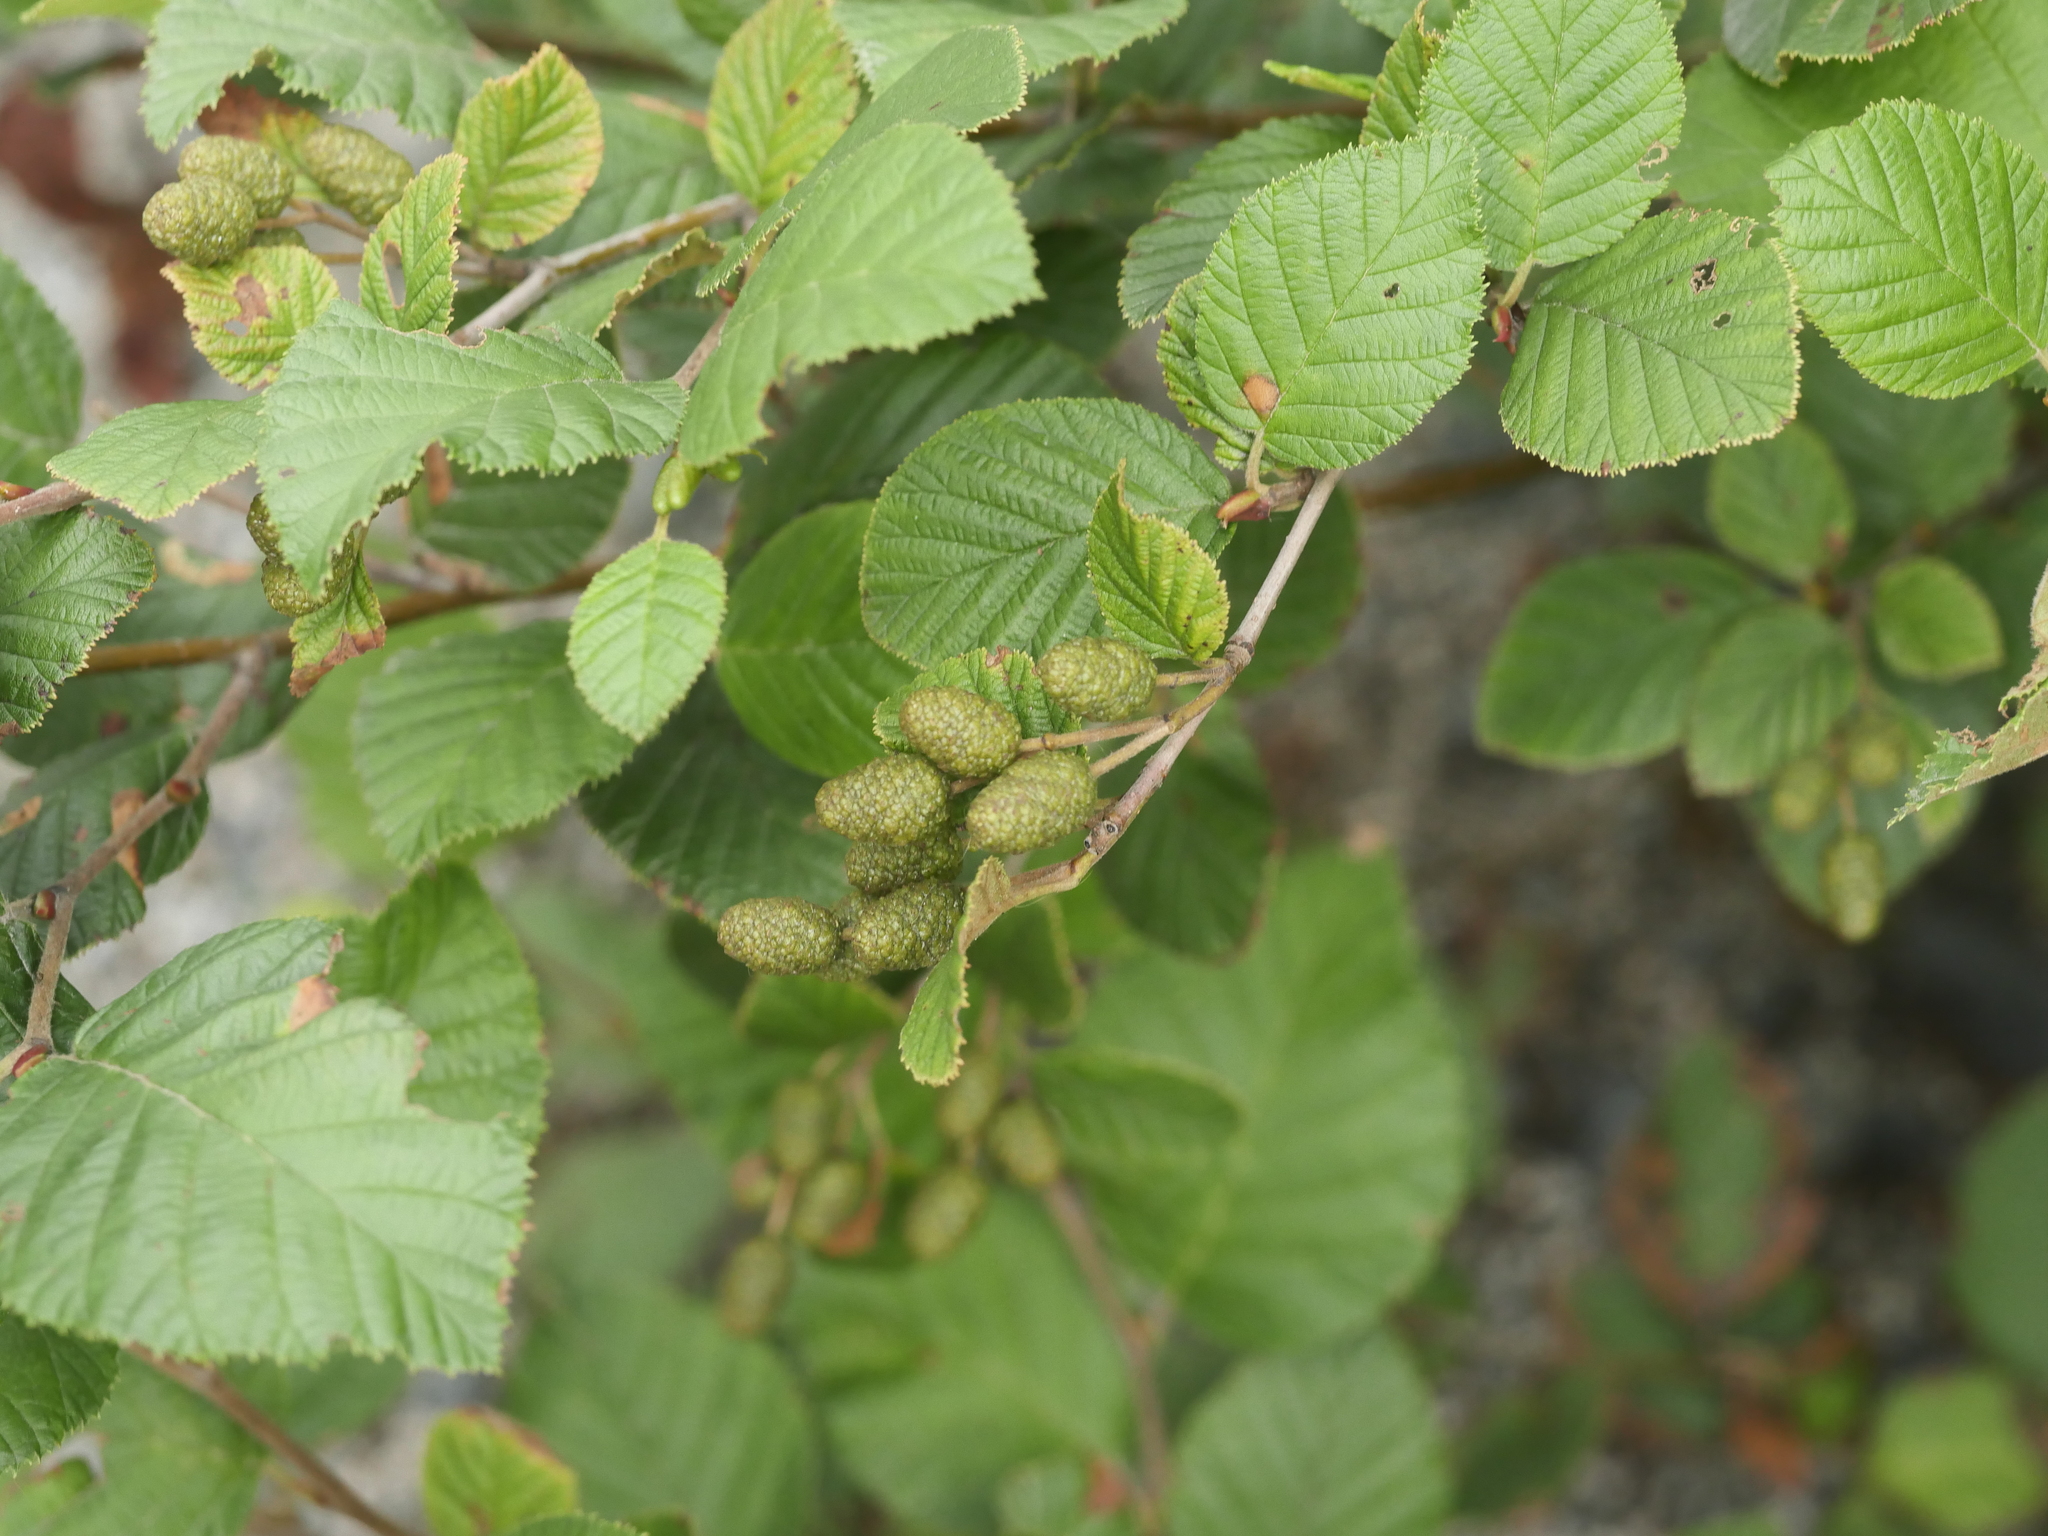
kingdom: Plantae
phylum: Tracheophyta
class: Magnoliopsida
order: Fagales
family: Betulaceae
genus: Alnus
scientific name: Alnus alnobetula
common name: Green alder
